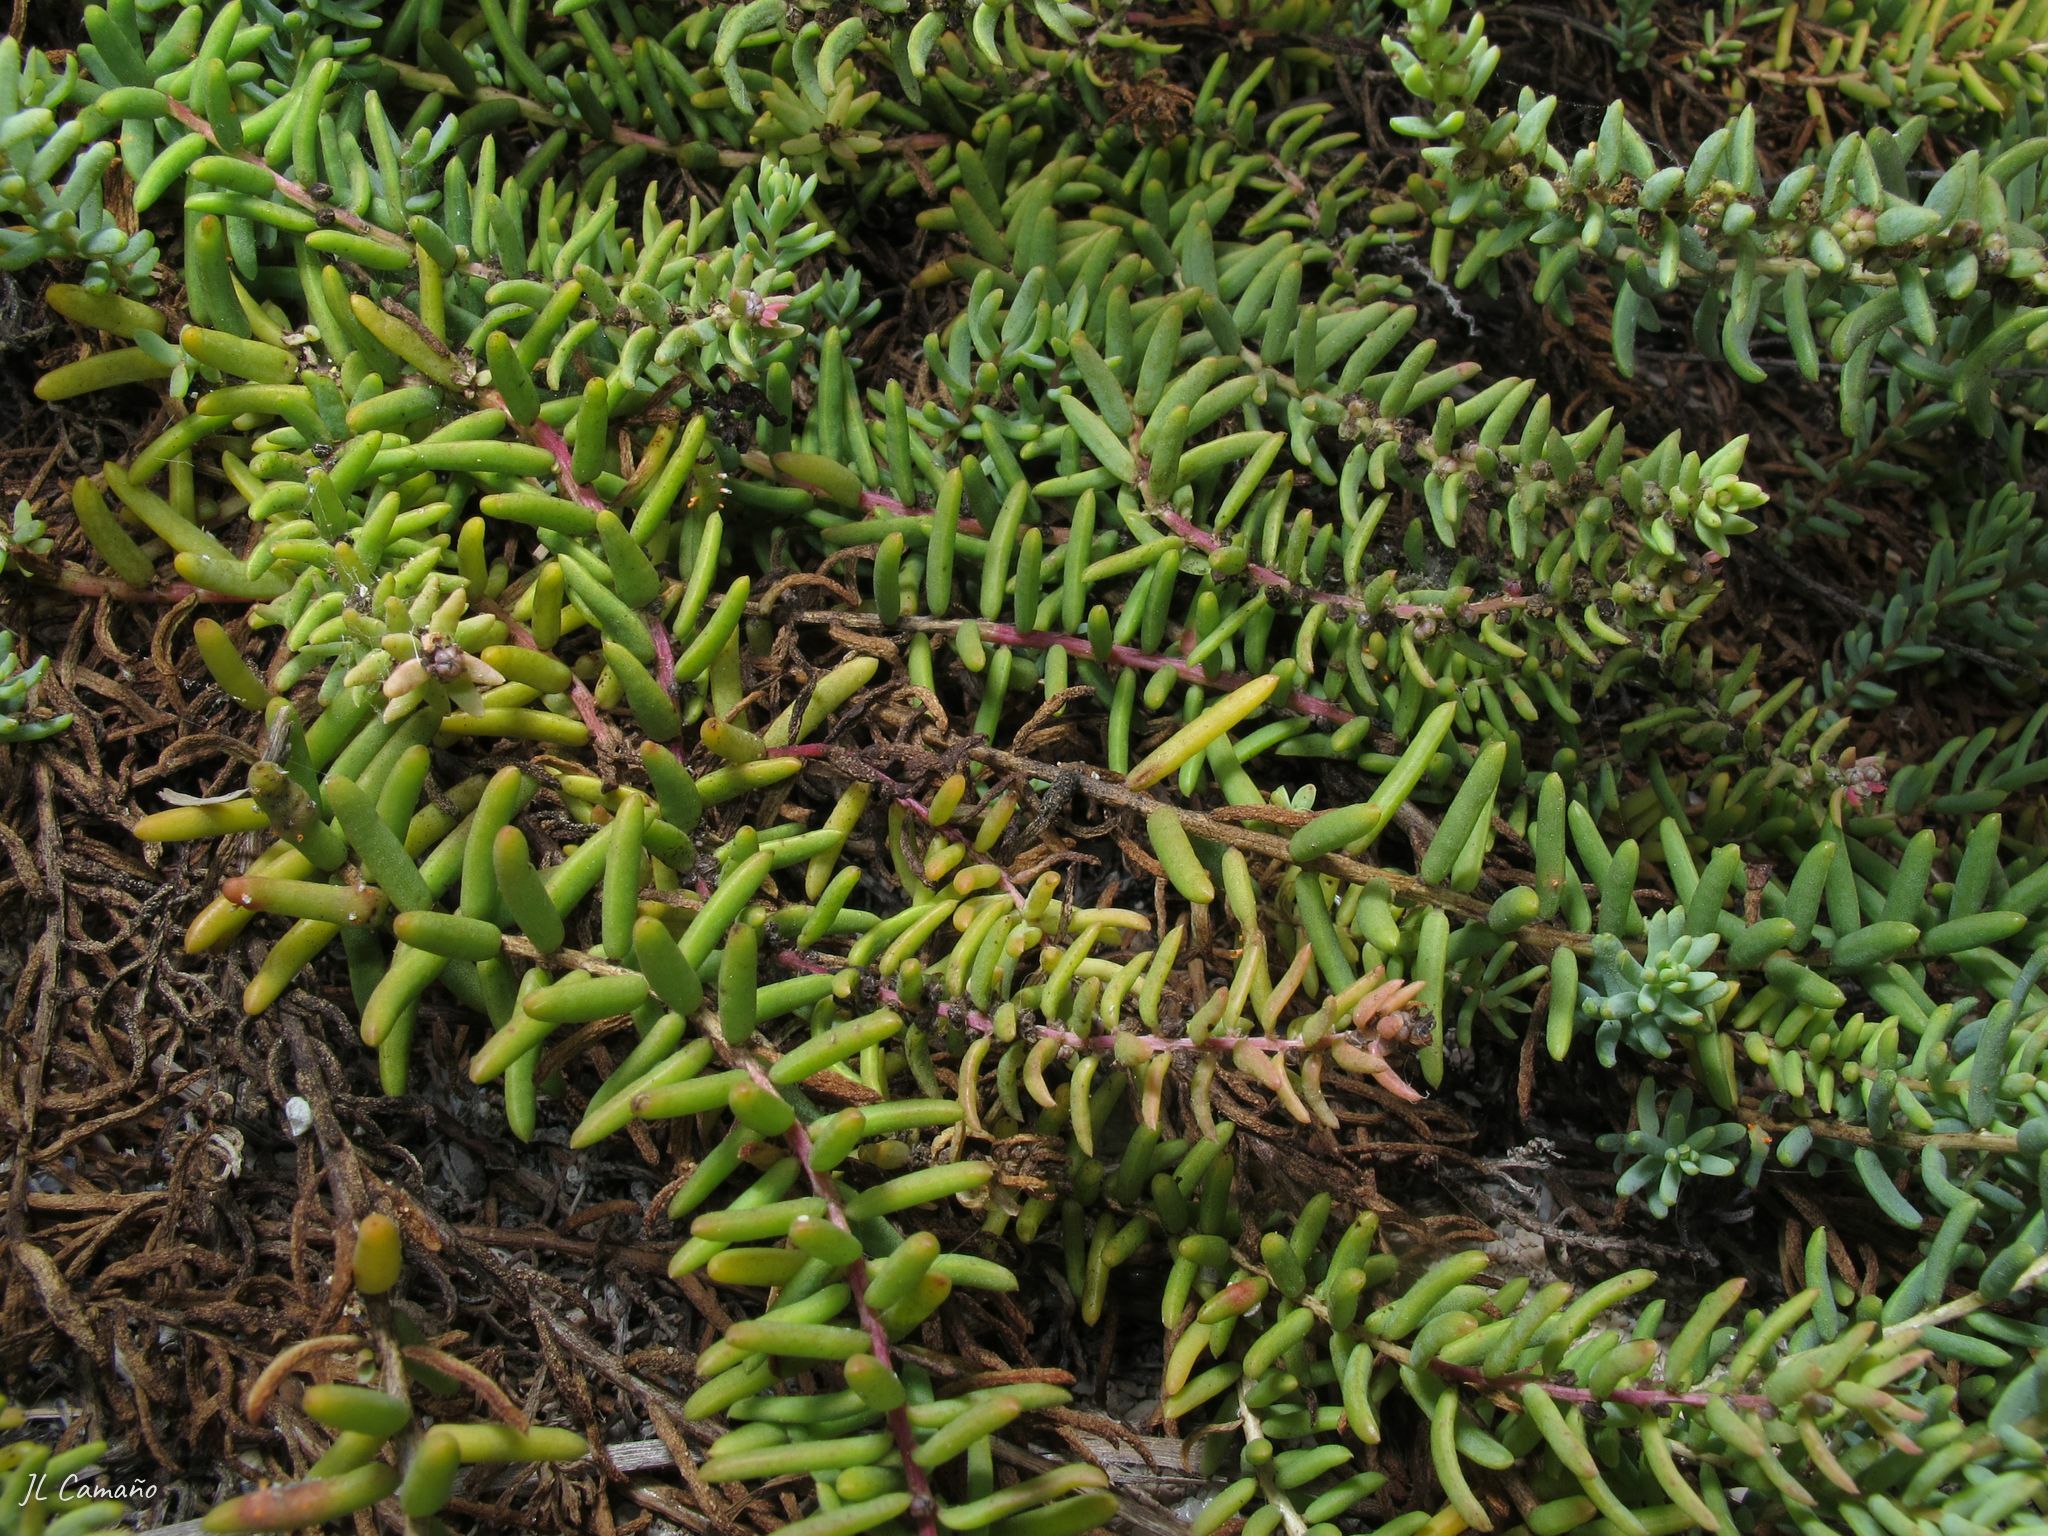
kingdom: Plantae
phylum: Tracheophyta
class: Magnoliopsida
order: Caryophyllales
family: Amaranthaceae
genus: Suaeda
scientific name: Suaeda vera
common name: Shrubby sea-blite
